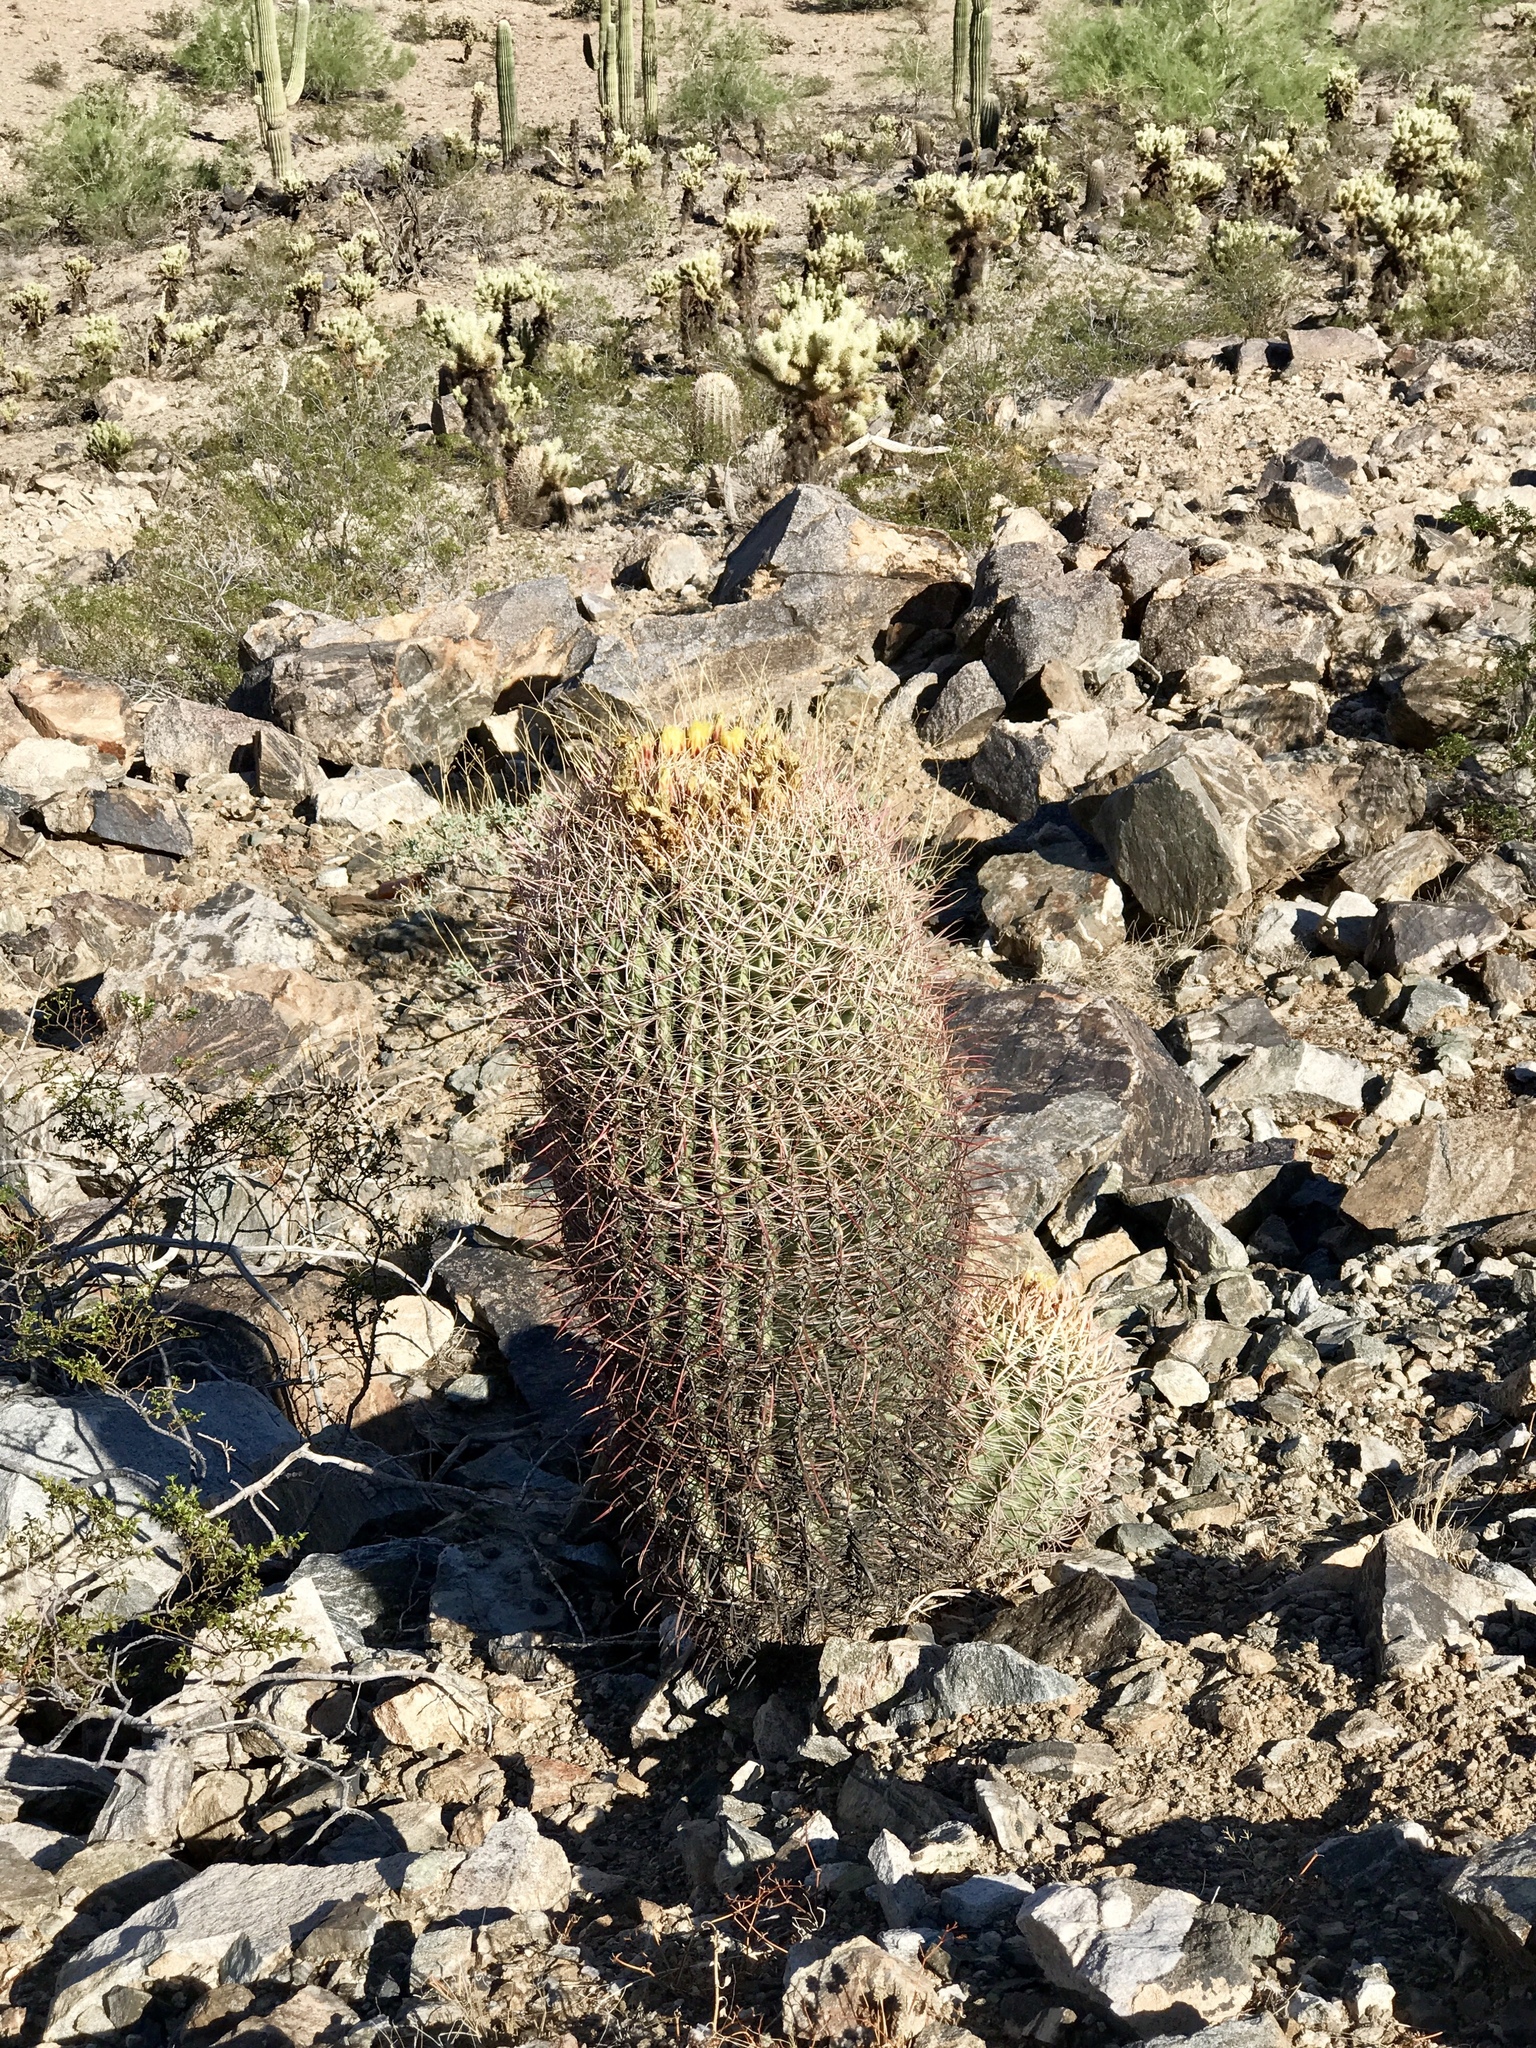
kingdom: Plantae
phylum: Tracheophyta
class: Magnoliopsida
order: Caryophyllales
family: Cactaceae
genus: Ferocactus
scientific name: Ferocactus wislizeni
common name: Candy barrel cactus
